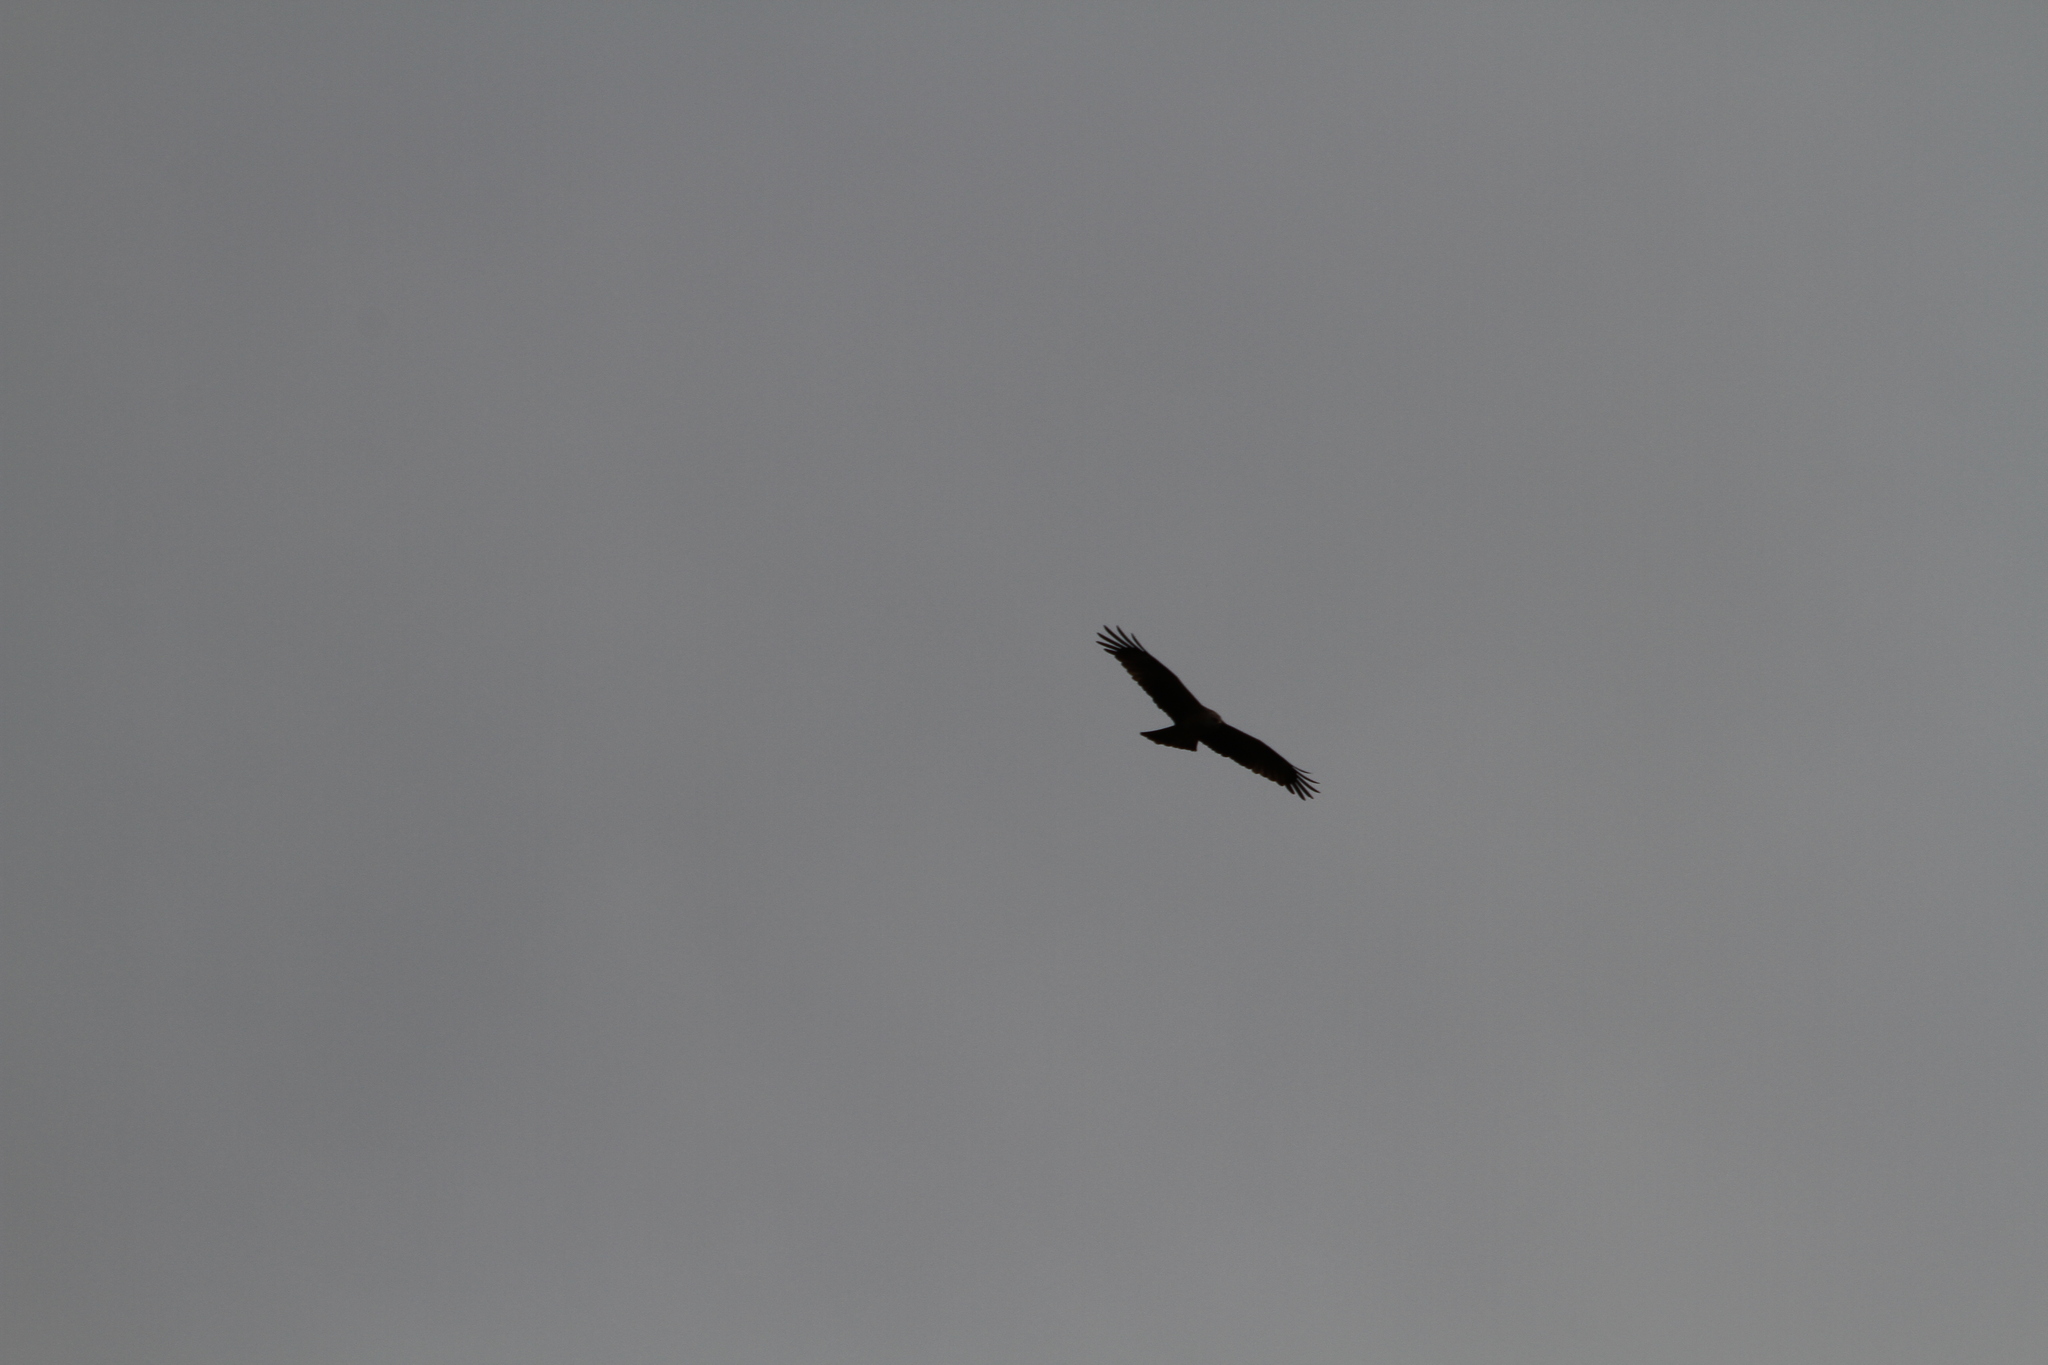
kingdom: Animalia
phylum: Chordata
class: Aves
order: Accipitriformes
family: Accipitridae
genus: Milvus
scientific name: Milvus migrans
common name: Black kite
